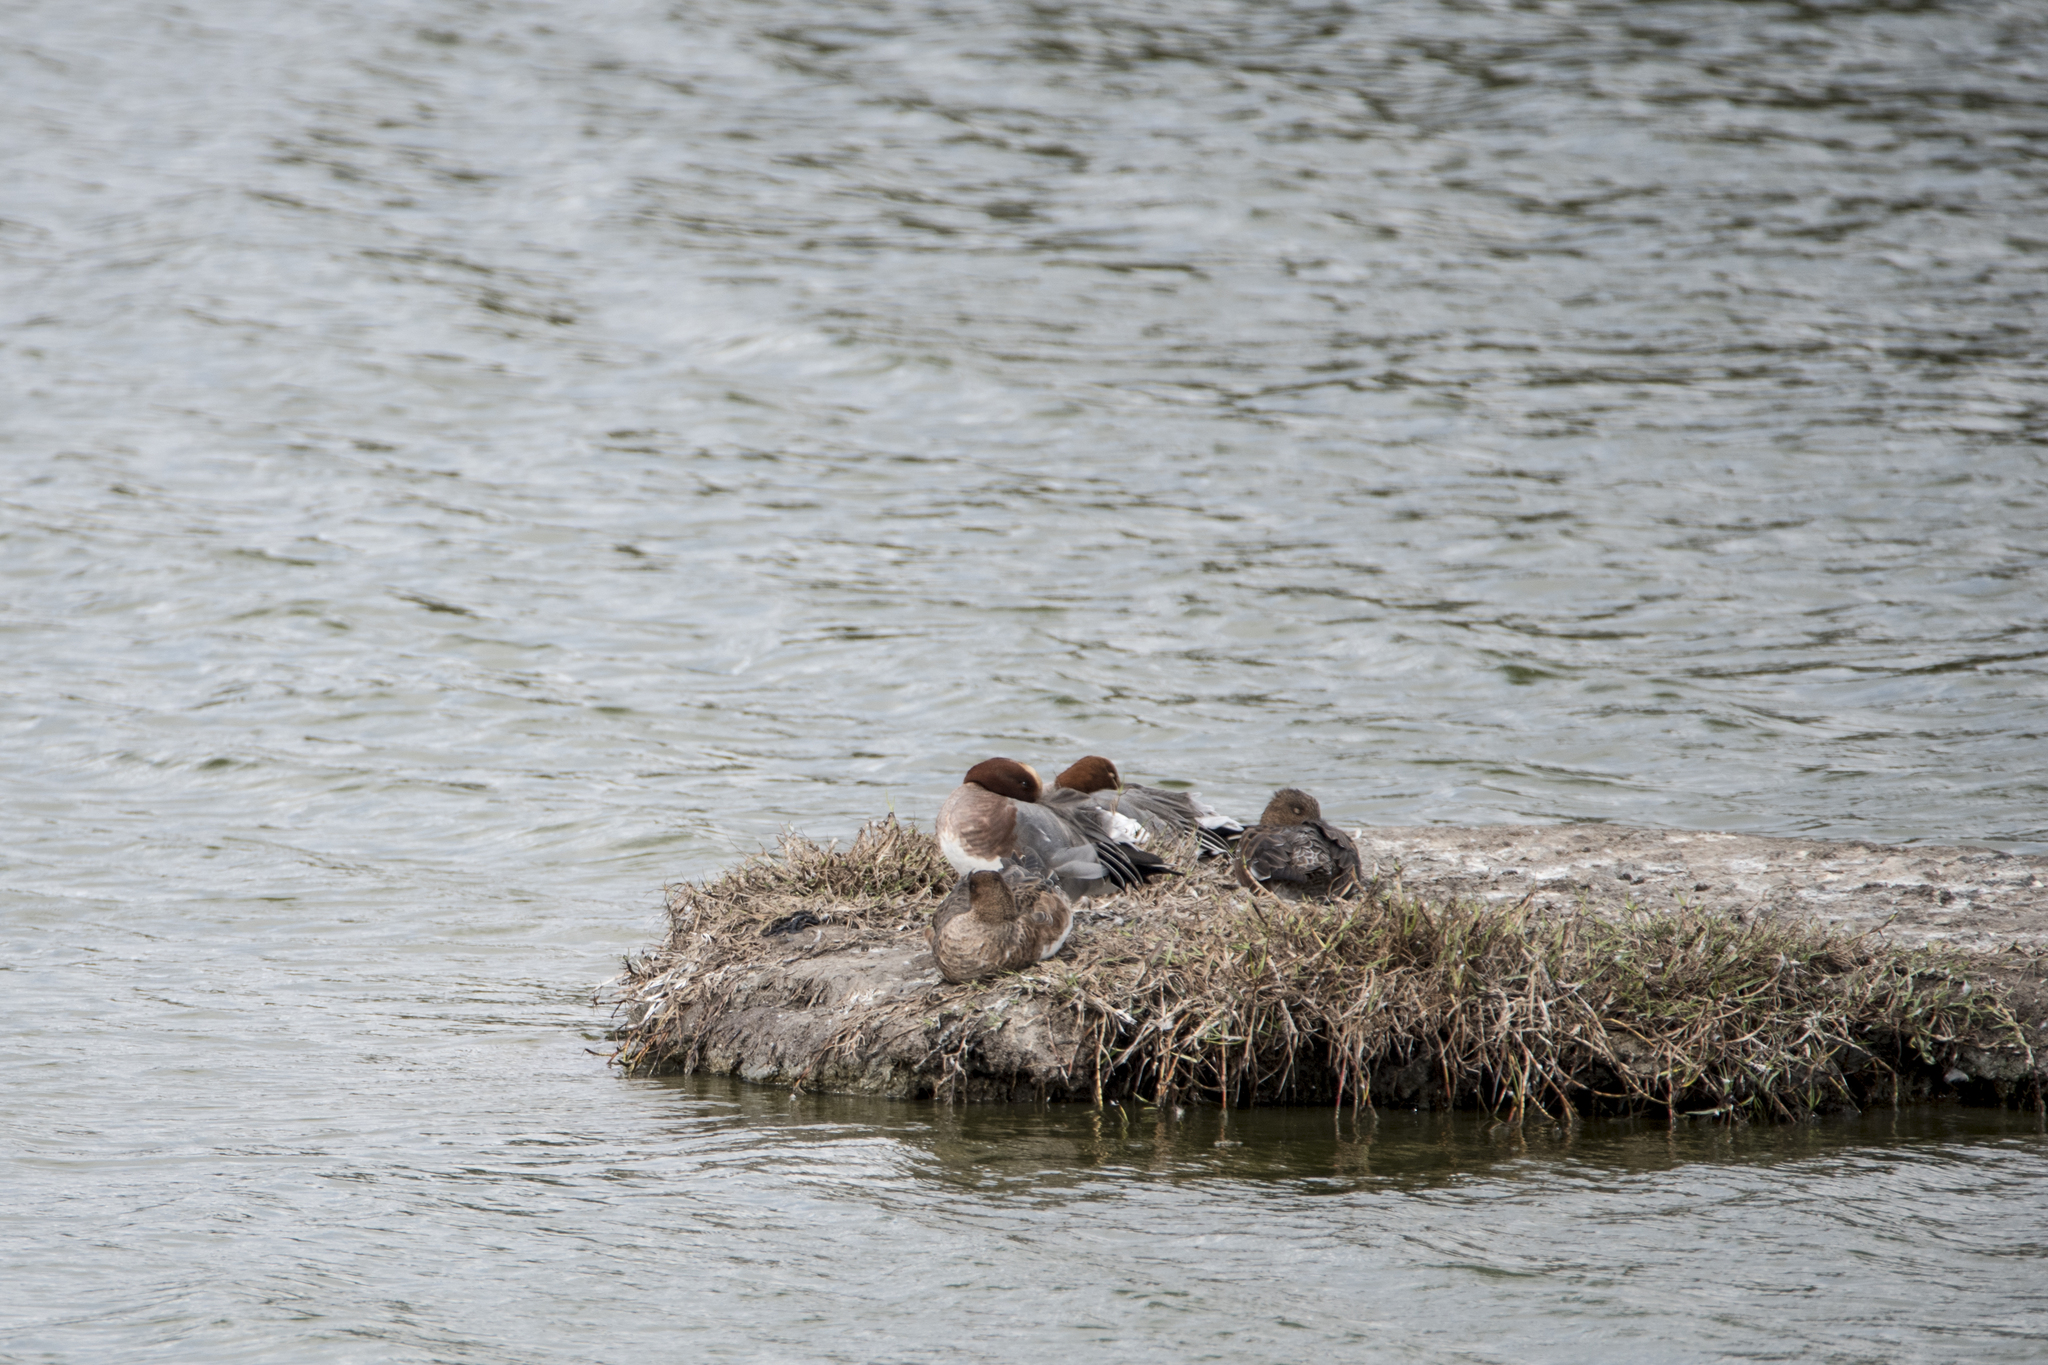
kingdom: Animalia
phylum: Chordata
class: Aves
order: Anseriformes
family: Anatidae
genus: Mareca
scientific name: Mareca penelope
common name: Eurasian wigeon
